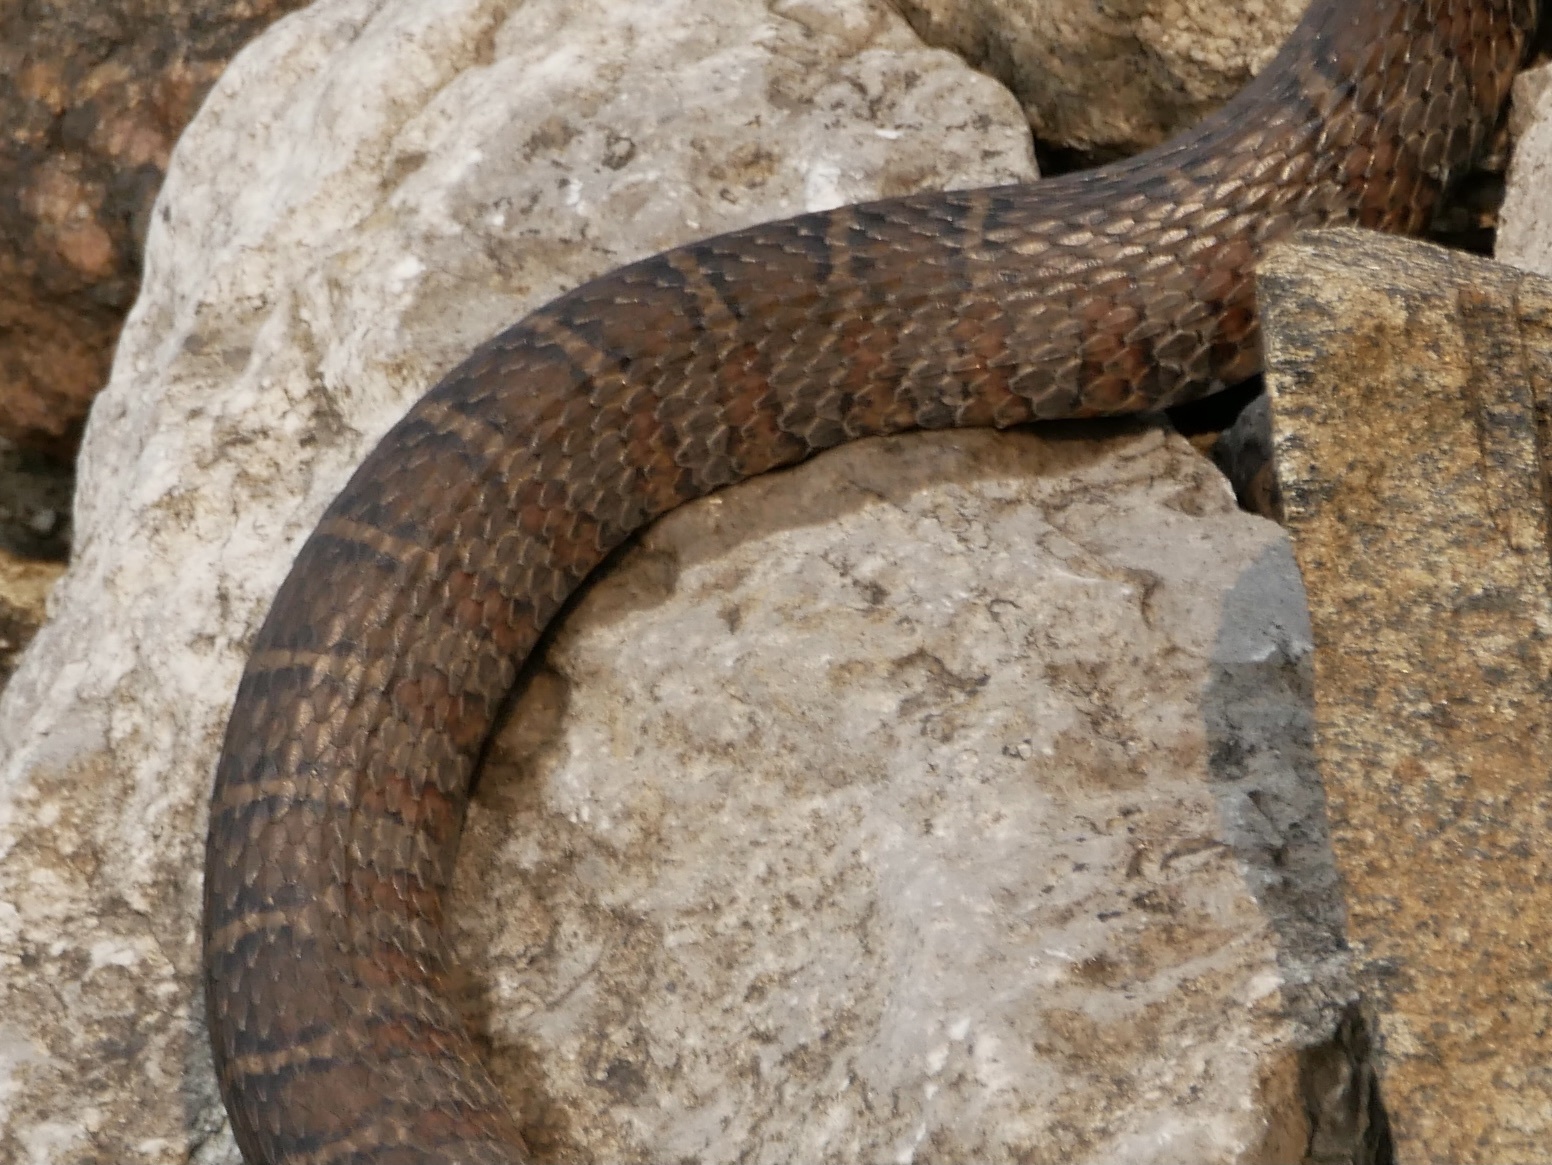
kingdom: Animalia
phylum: Chordata
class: Squamata
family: Colubridae
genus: Nerodia
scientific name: Nerodia sipedon
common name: Northern water snake
